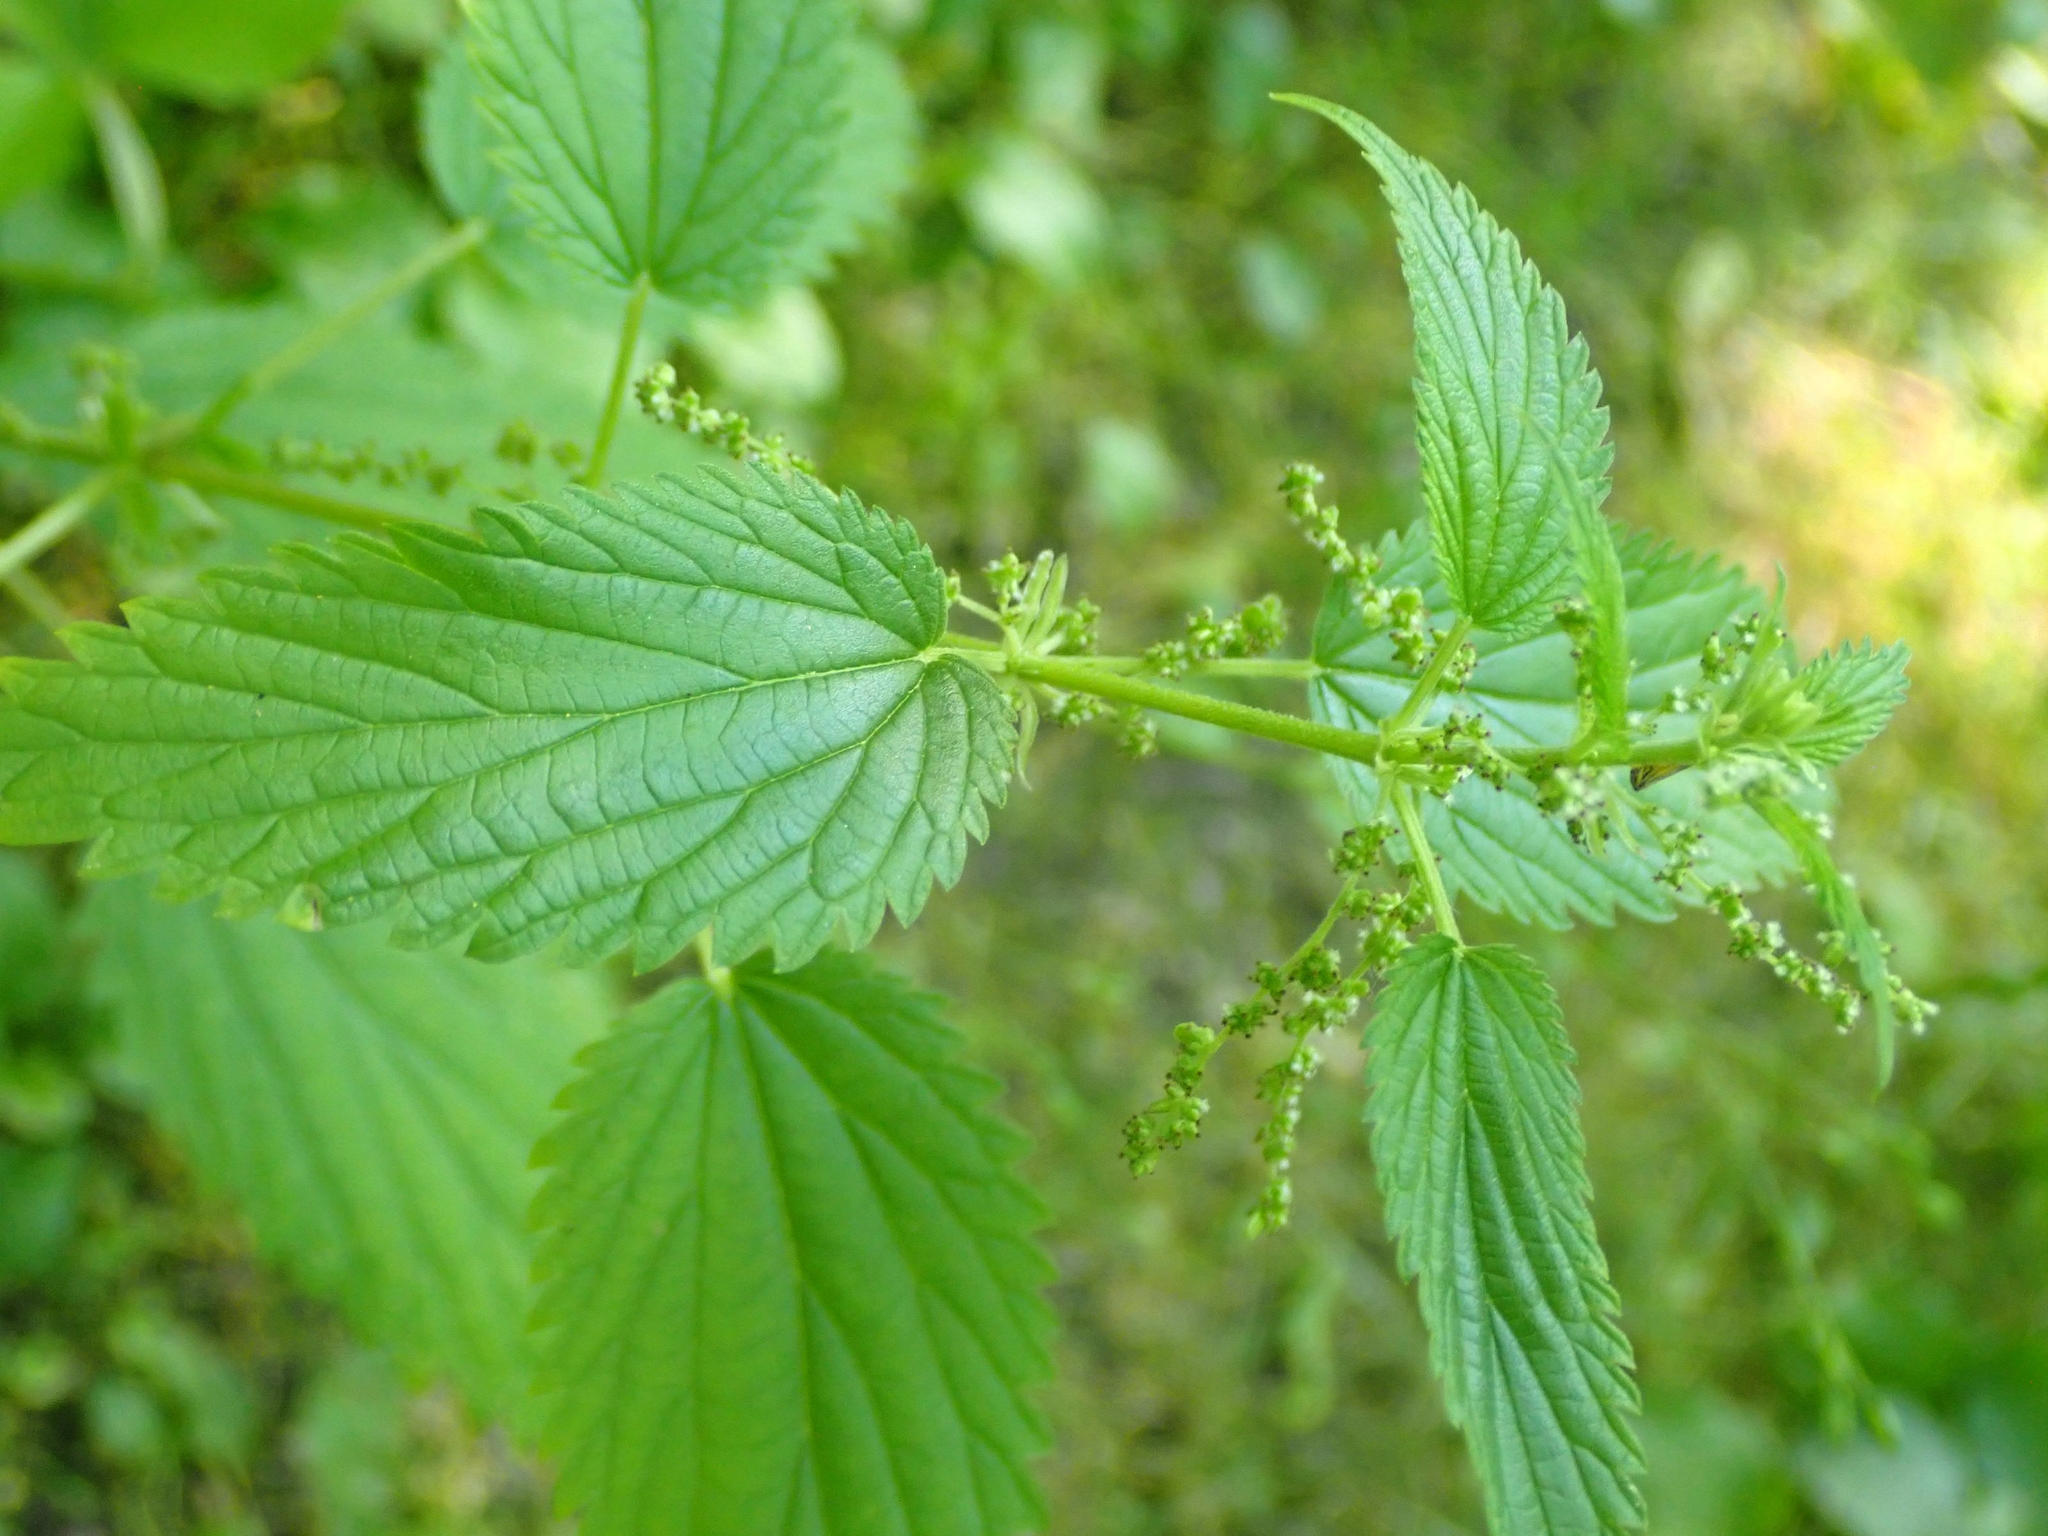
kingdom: Plantae
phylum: Tracheophyta
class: Magnoliopsida
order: Rosales
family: Urticaceae
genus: Urtica
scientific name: Urtica gracilis
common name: Slender stinging nettle
